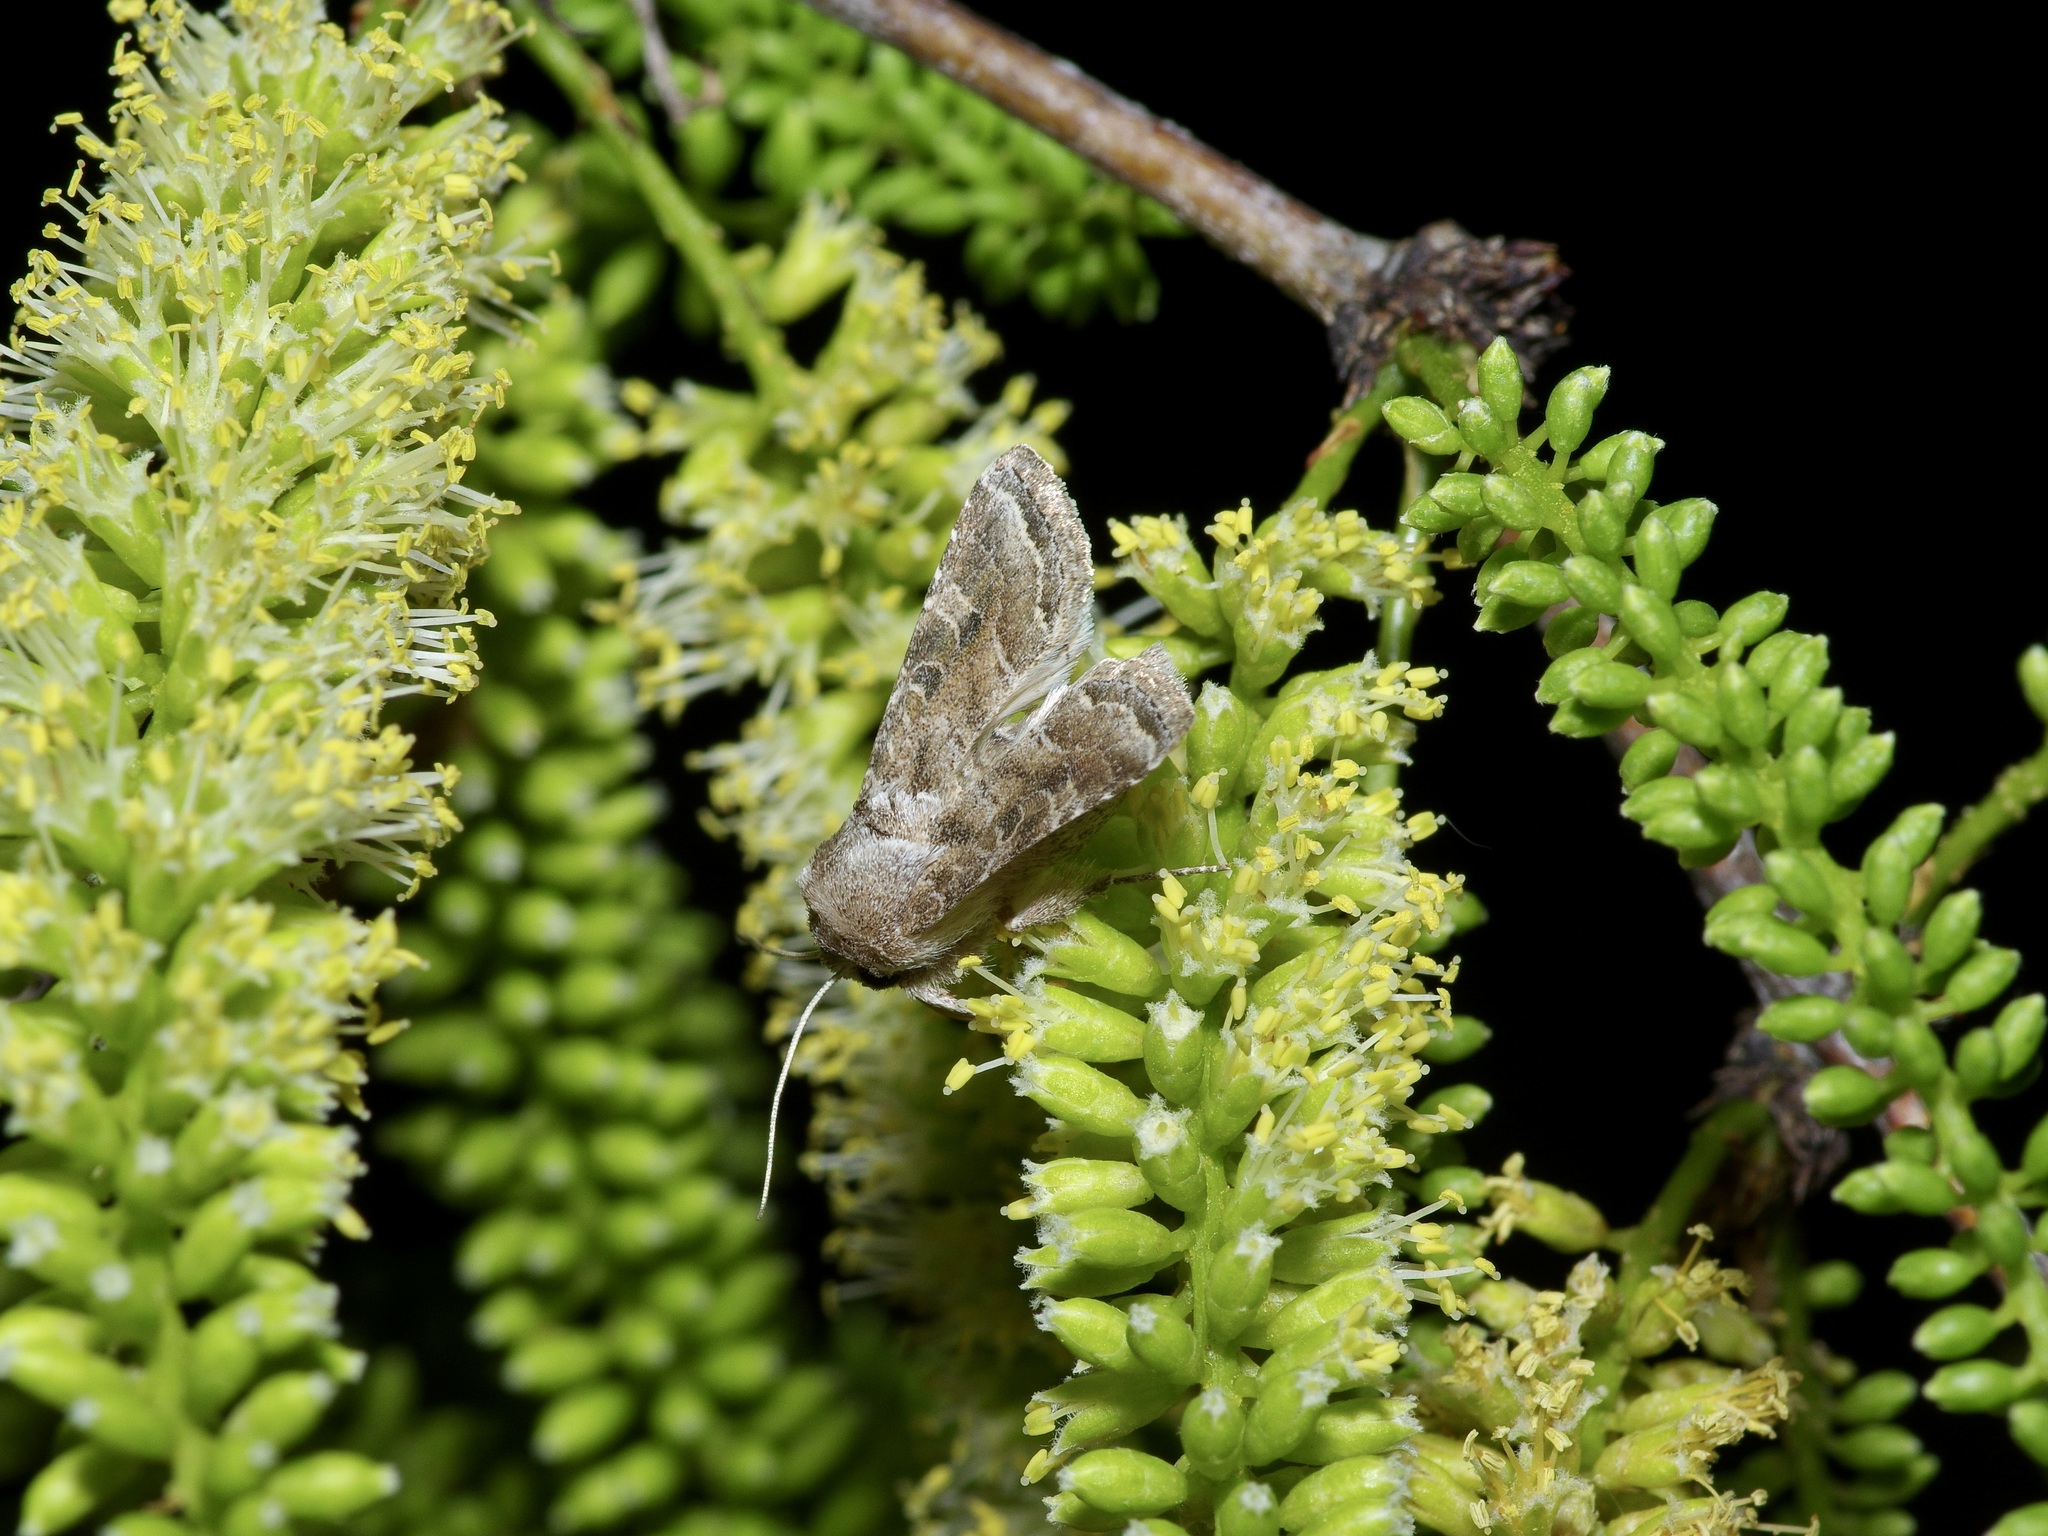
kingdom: Animalia
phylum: Arthropoda
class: Insecta
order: Lepidoptera
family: Noctuidae
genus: Lacinipolia
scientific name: Lacinipolia erecta
